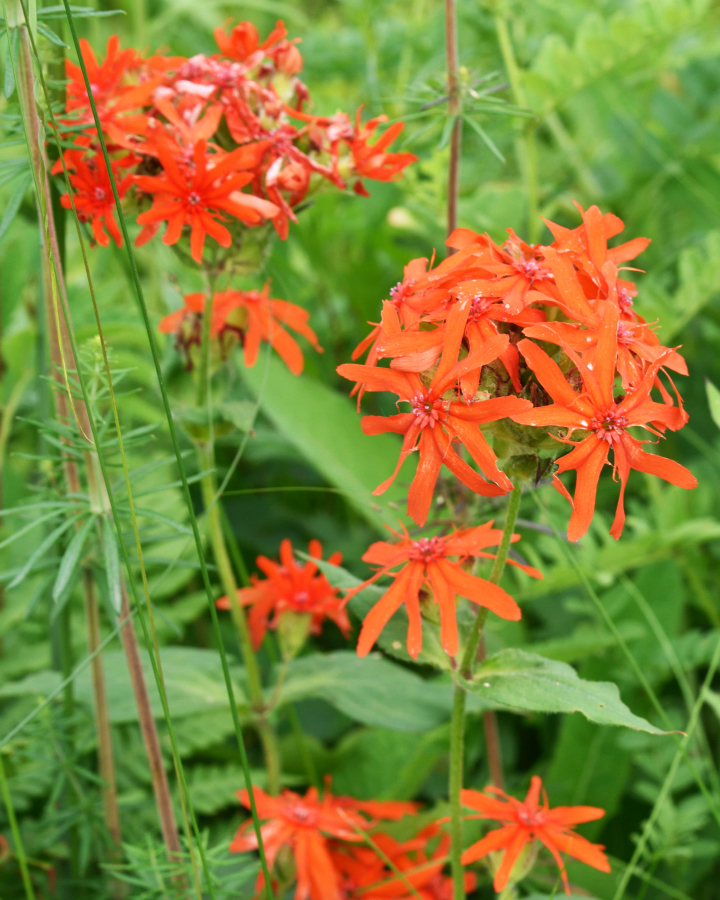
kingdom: Plantae
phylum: Tracheophyta
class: Magnoliopsida
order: Caryophyllales
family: Caryophyllaceae
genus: Silene
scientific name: Silene banksia
